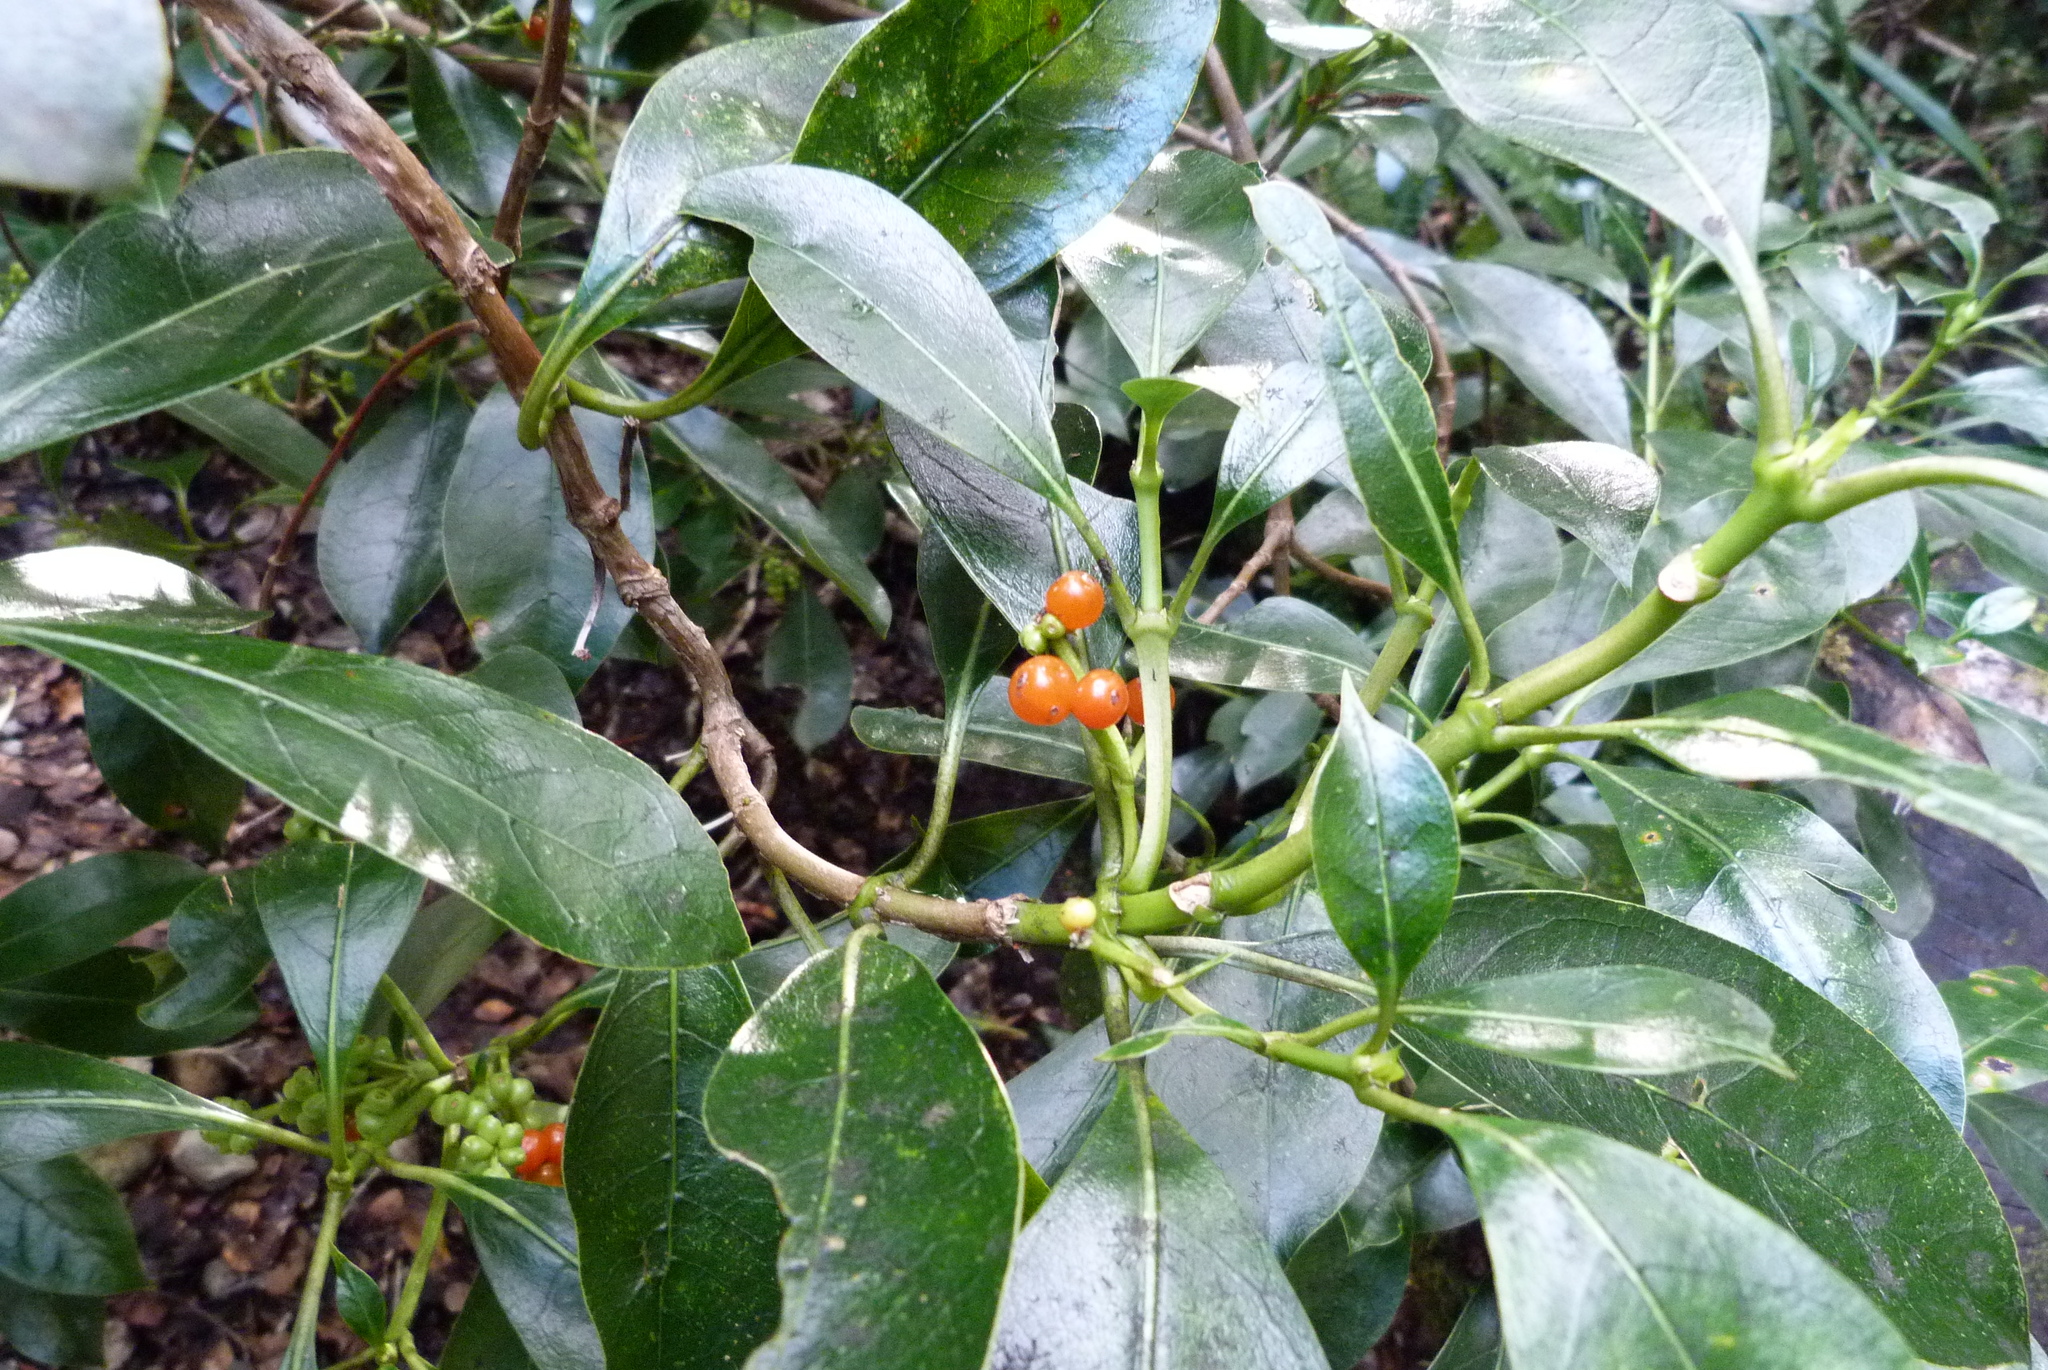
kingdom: Plantae
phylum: Tracheophyta
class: Magnoliopsida
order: Gentianales
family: Rubiaceae
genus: Coprosma
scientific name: Coprosma lucida
